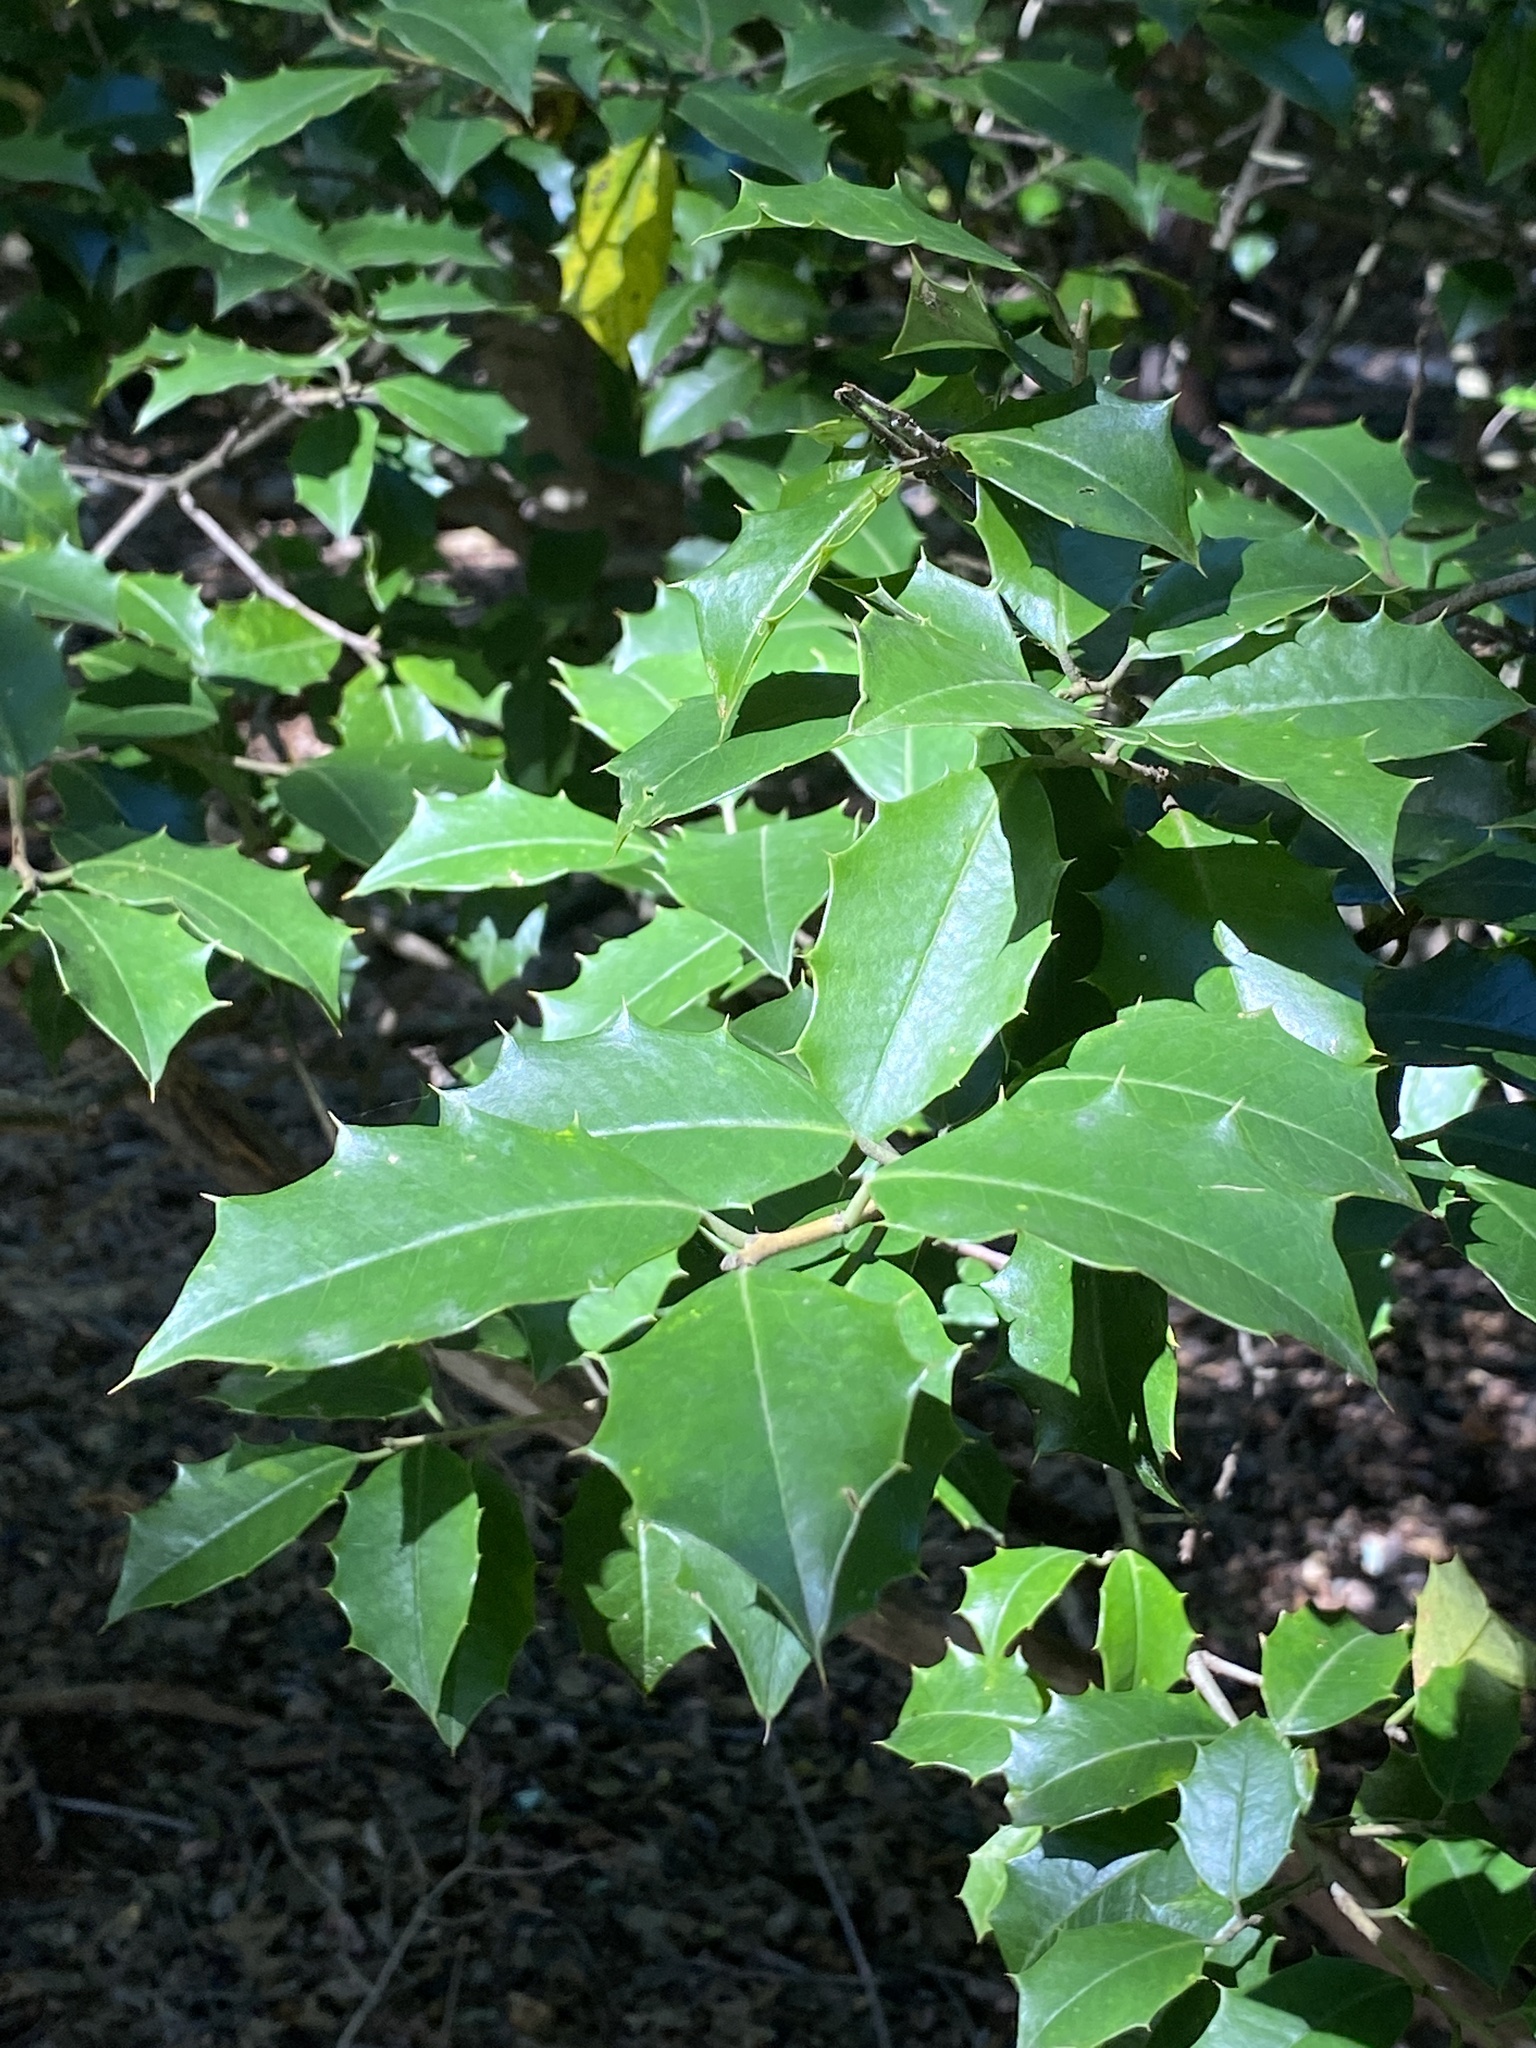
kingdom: Plantae
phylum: Tracheophyta
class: Magnoliopsida
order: Aquifoliales
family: Aquifoliaceae
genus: Ilex
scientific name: Ilex opaca
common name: American holly
